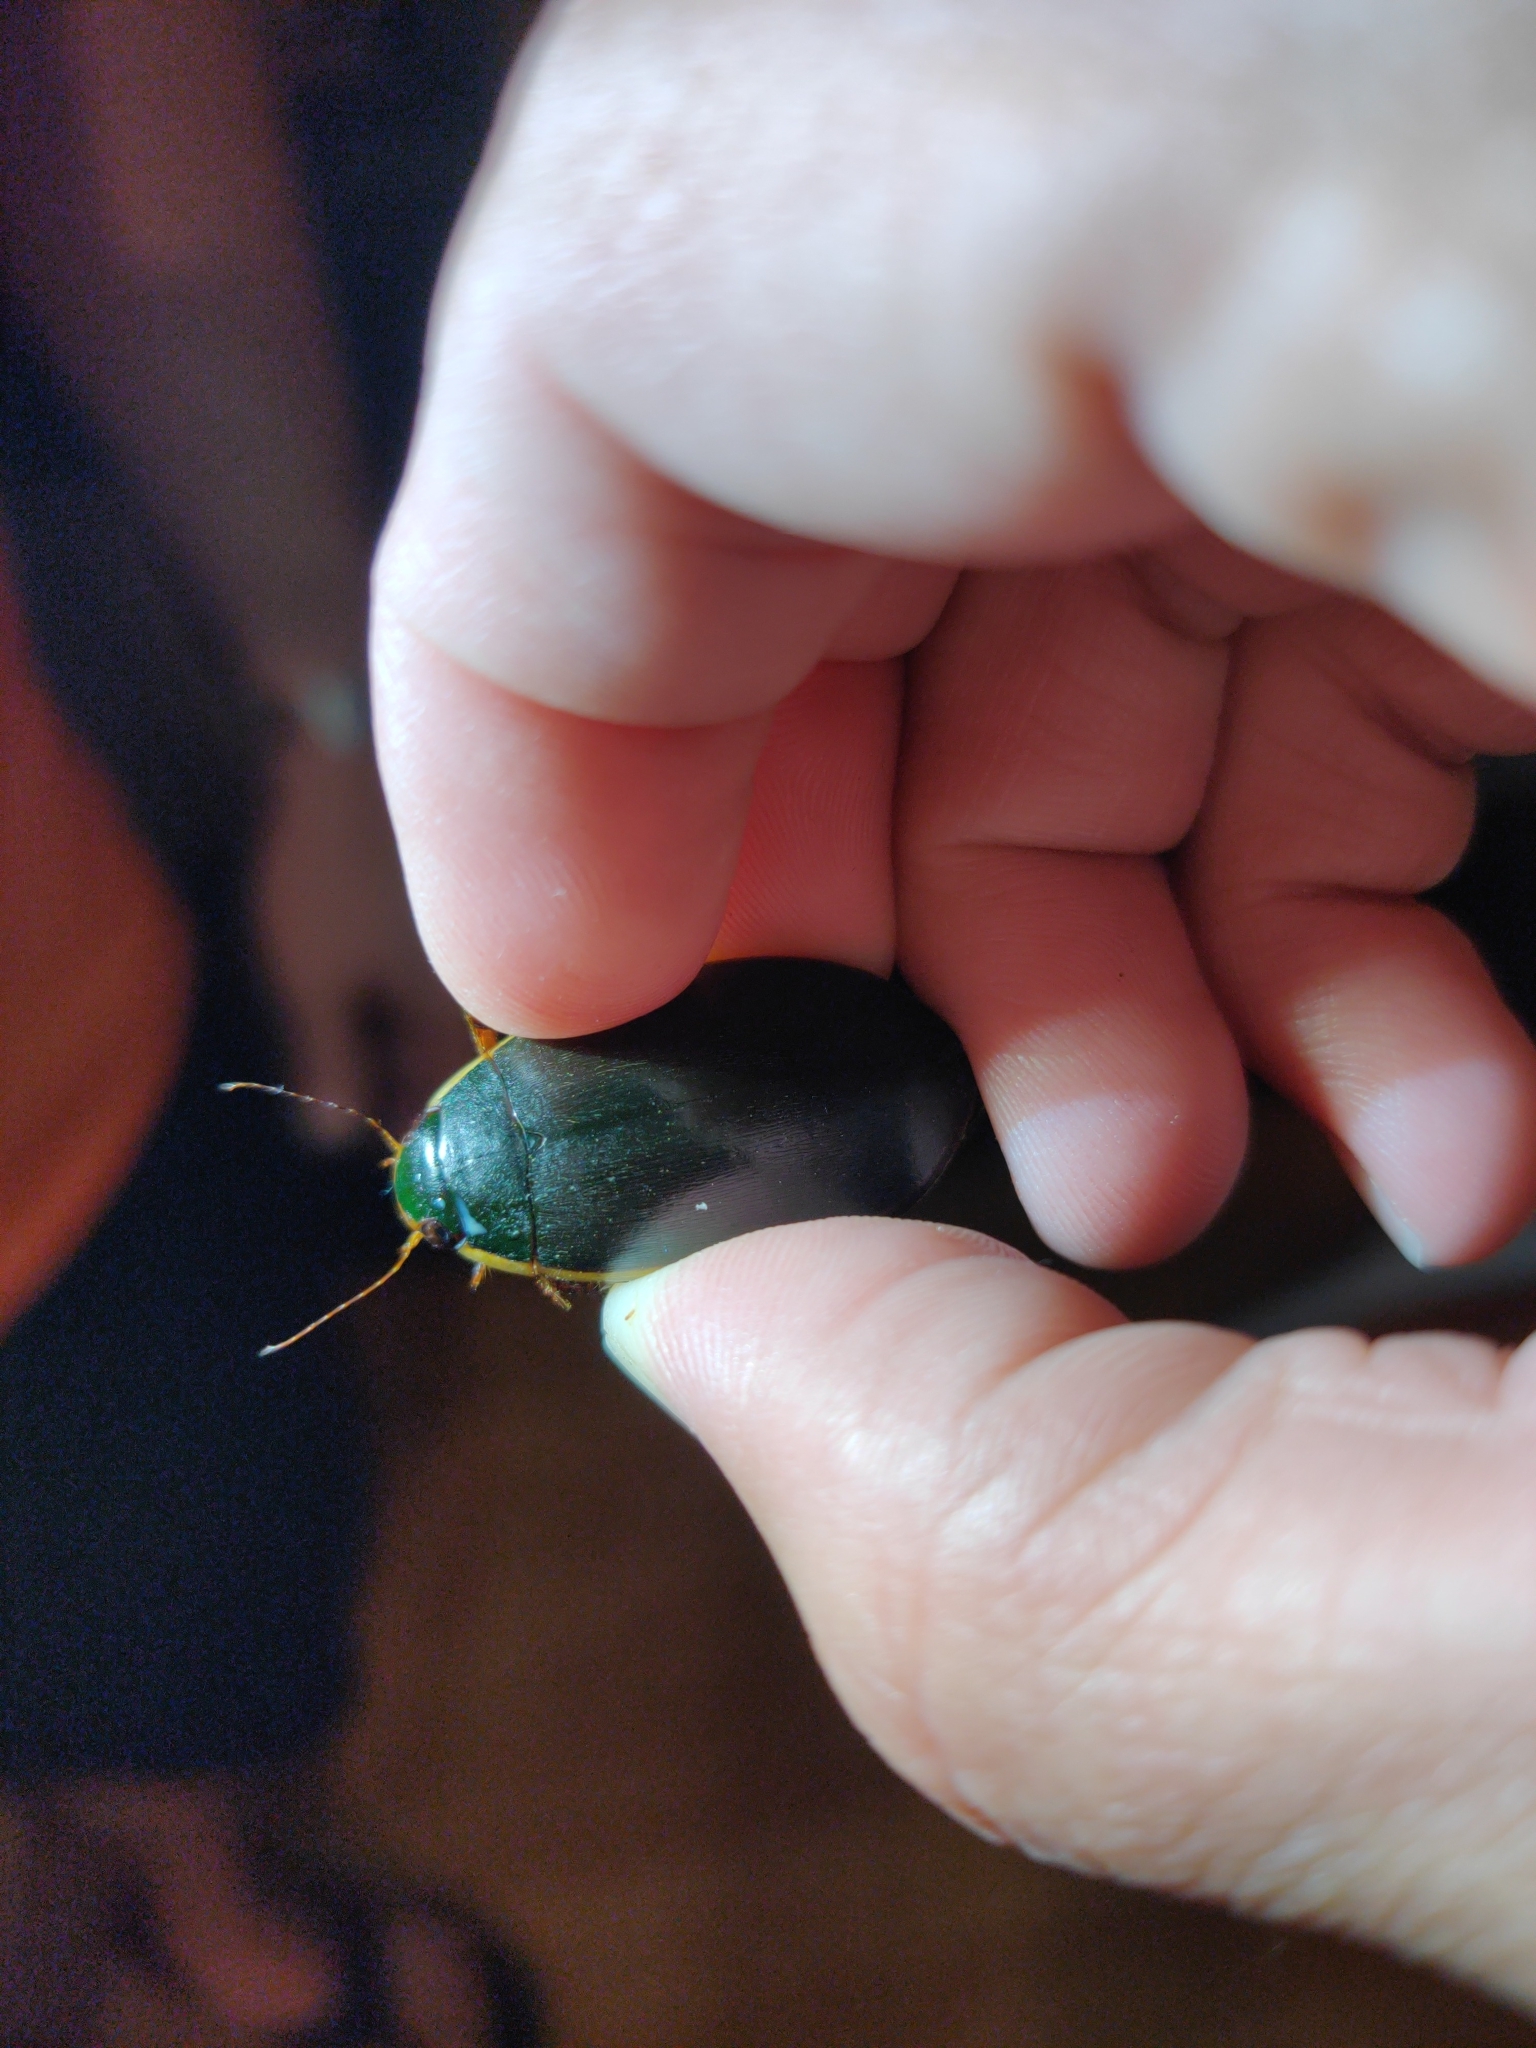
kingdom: Animalia
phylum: Arthropoda
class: Insecta
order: Coleoptera
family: Dytiscidae
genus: Cybister
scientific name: Cybister fimbriolatus
